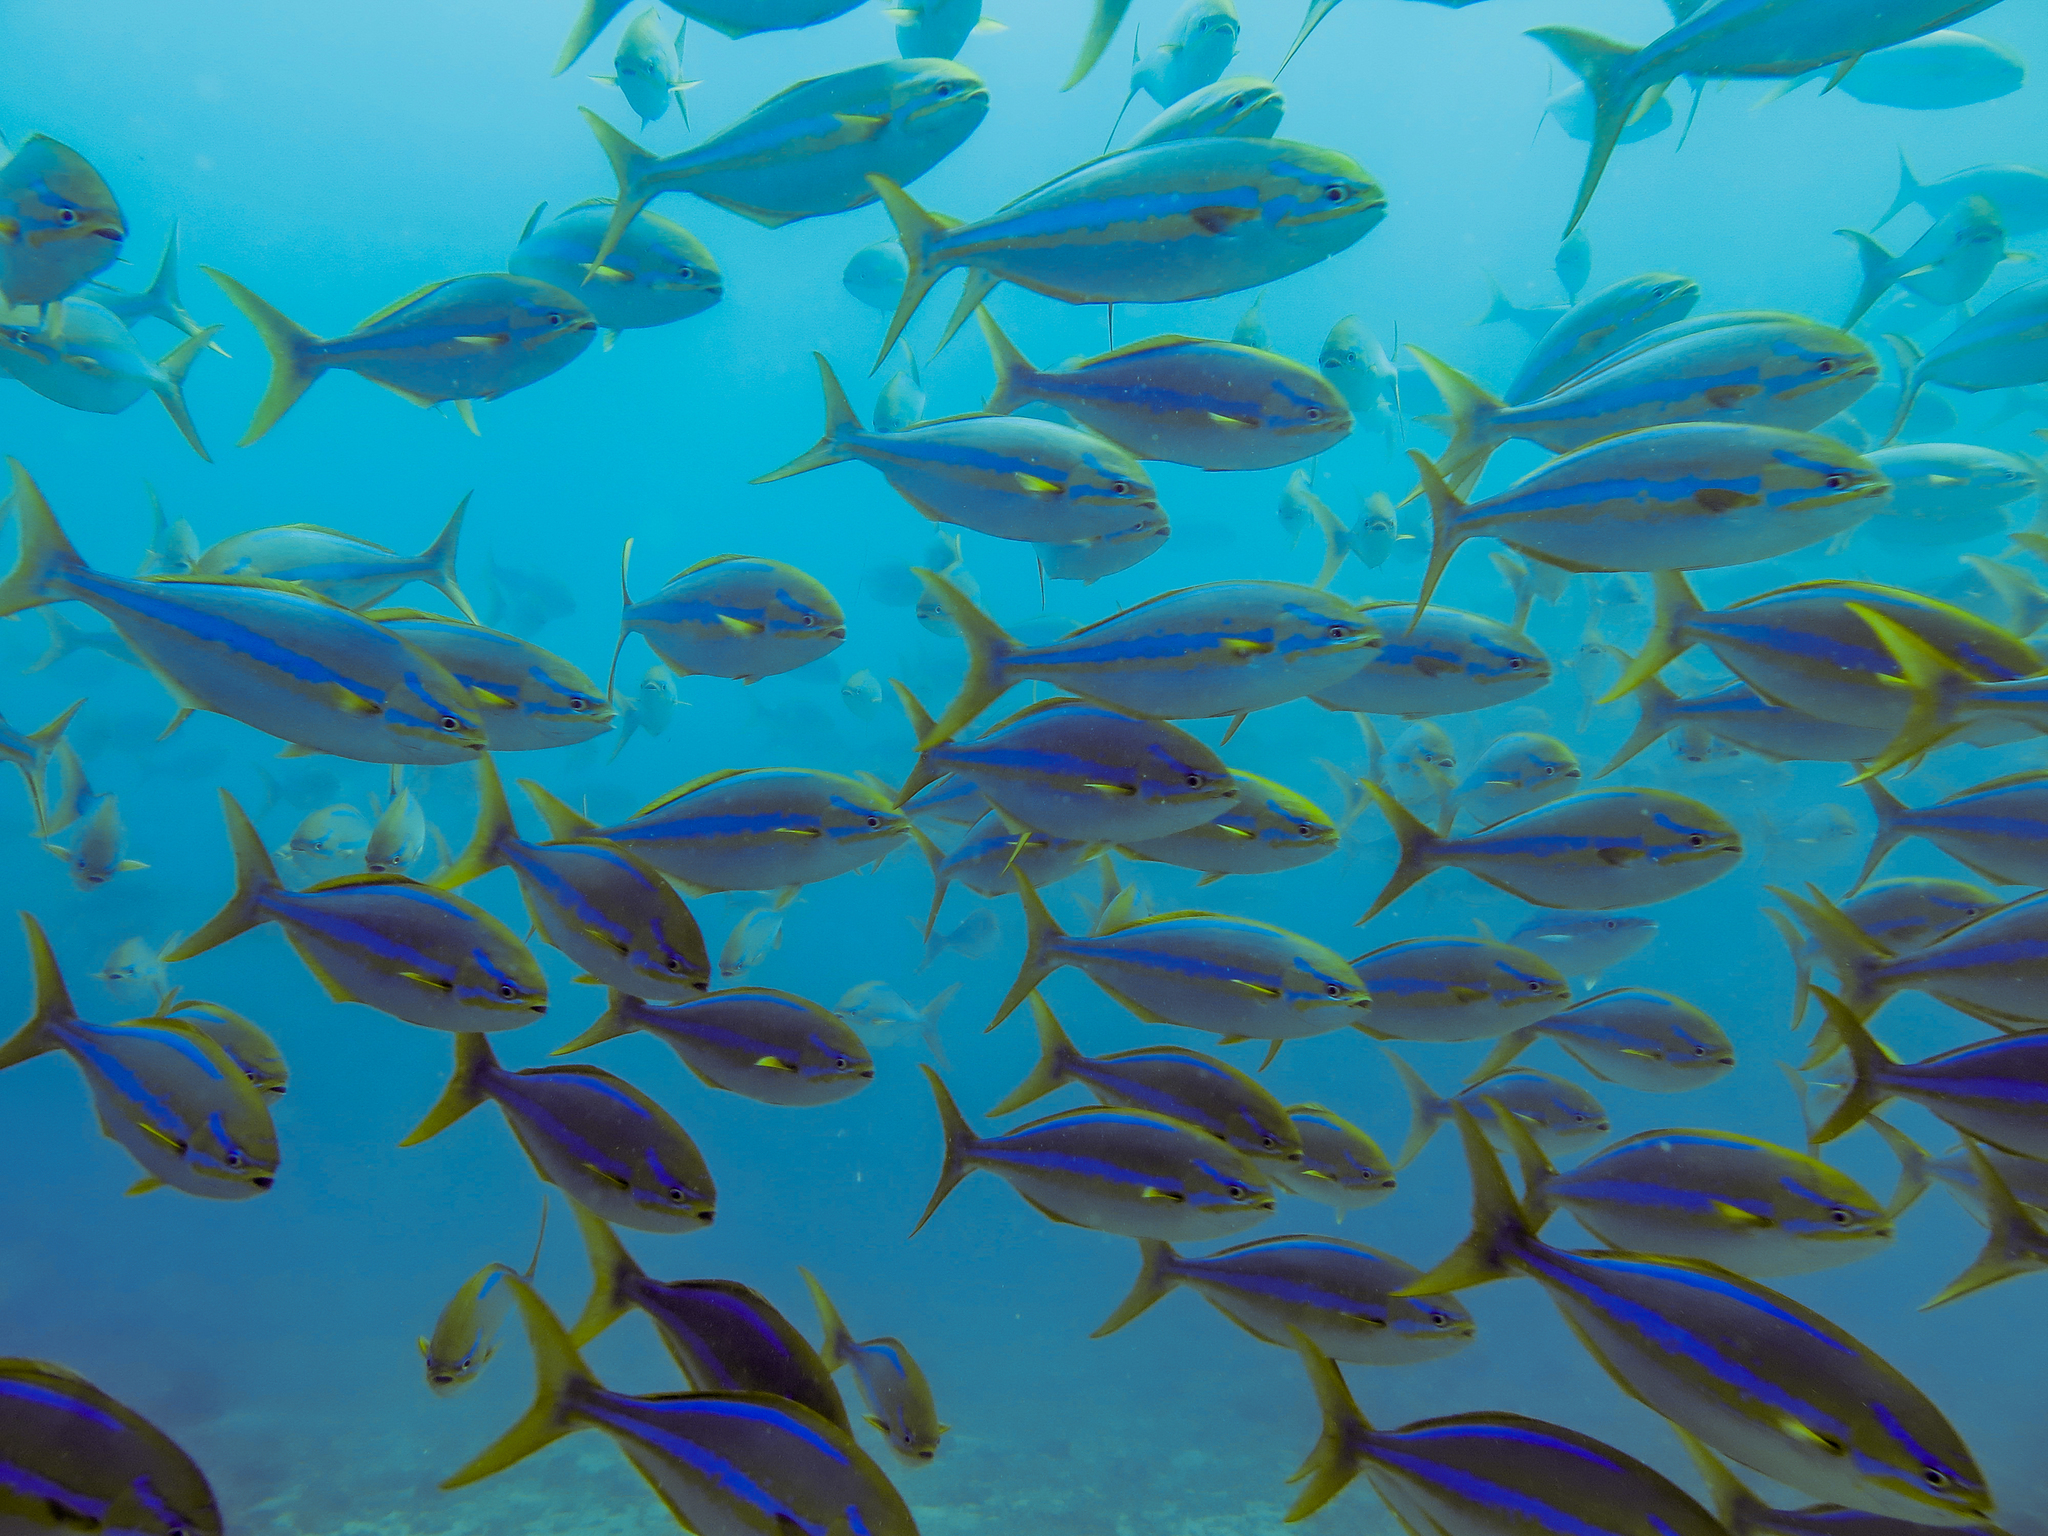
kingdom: Animalia
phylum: Chordata
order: Perciformes
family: Kyphosidae
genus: Kyphosus
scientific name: Kyphosus ocyurus
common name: Bluestriped chub
